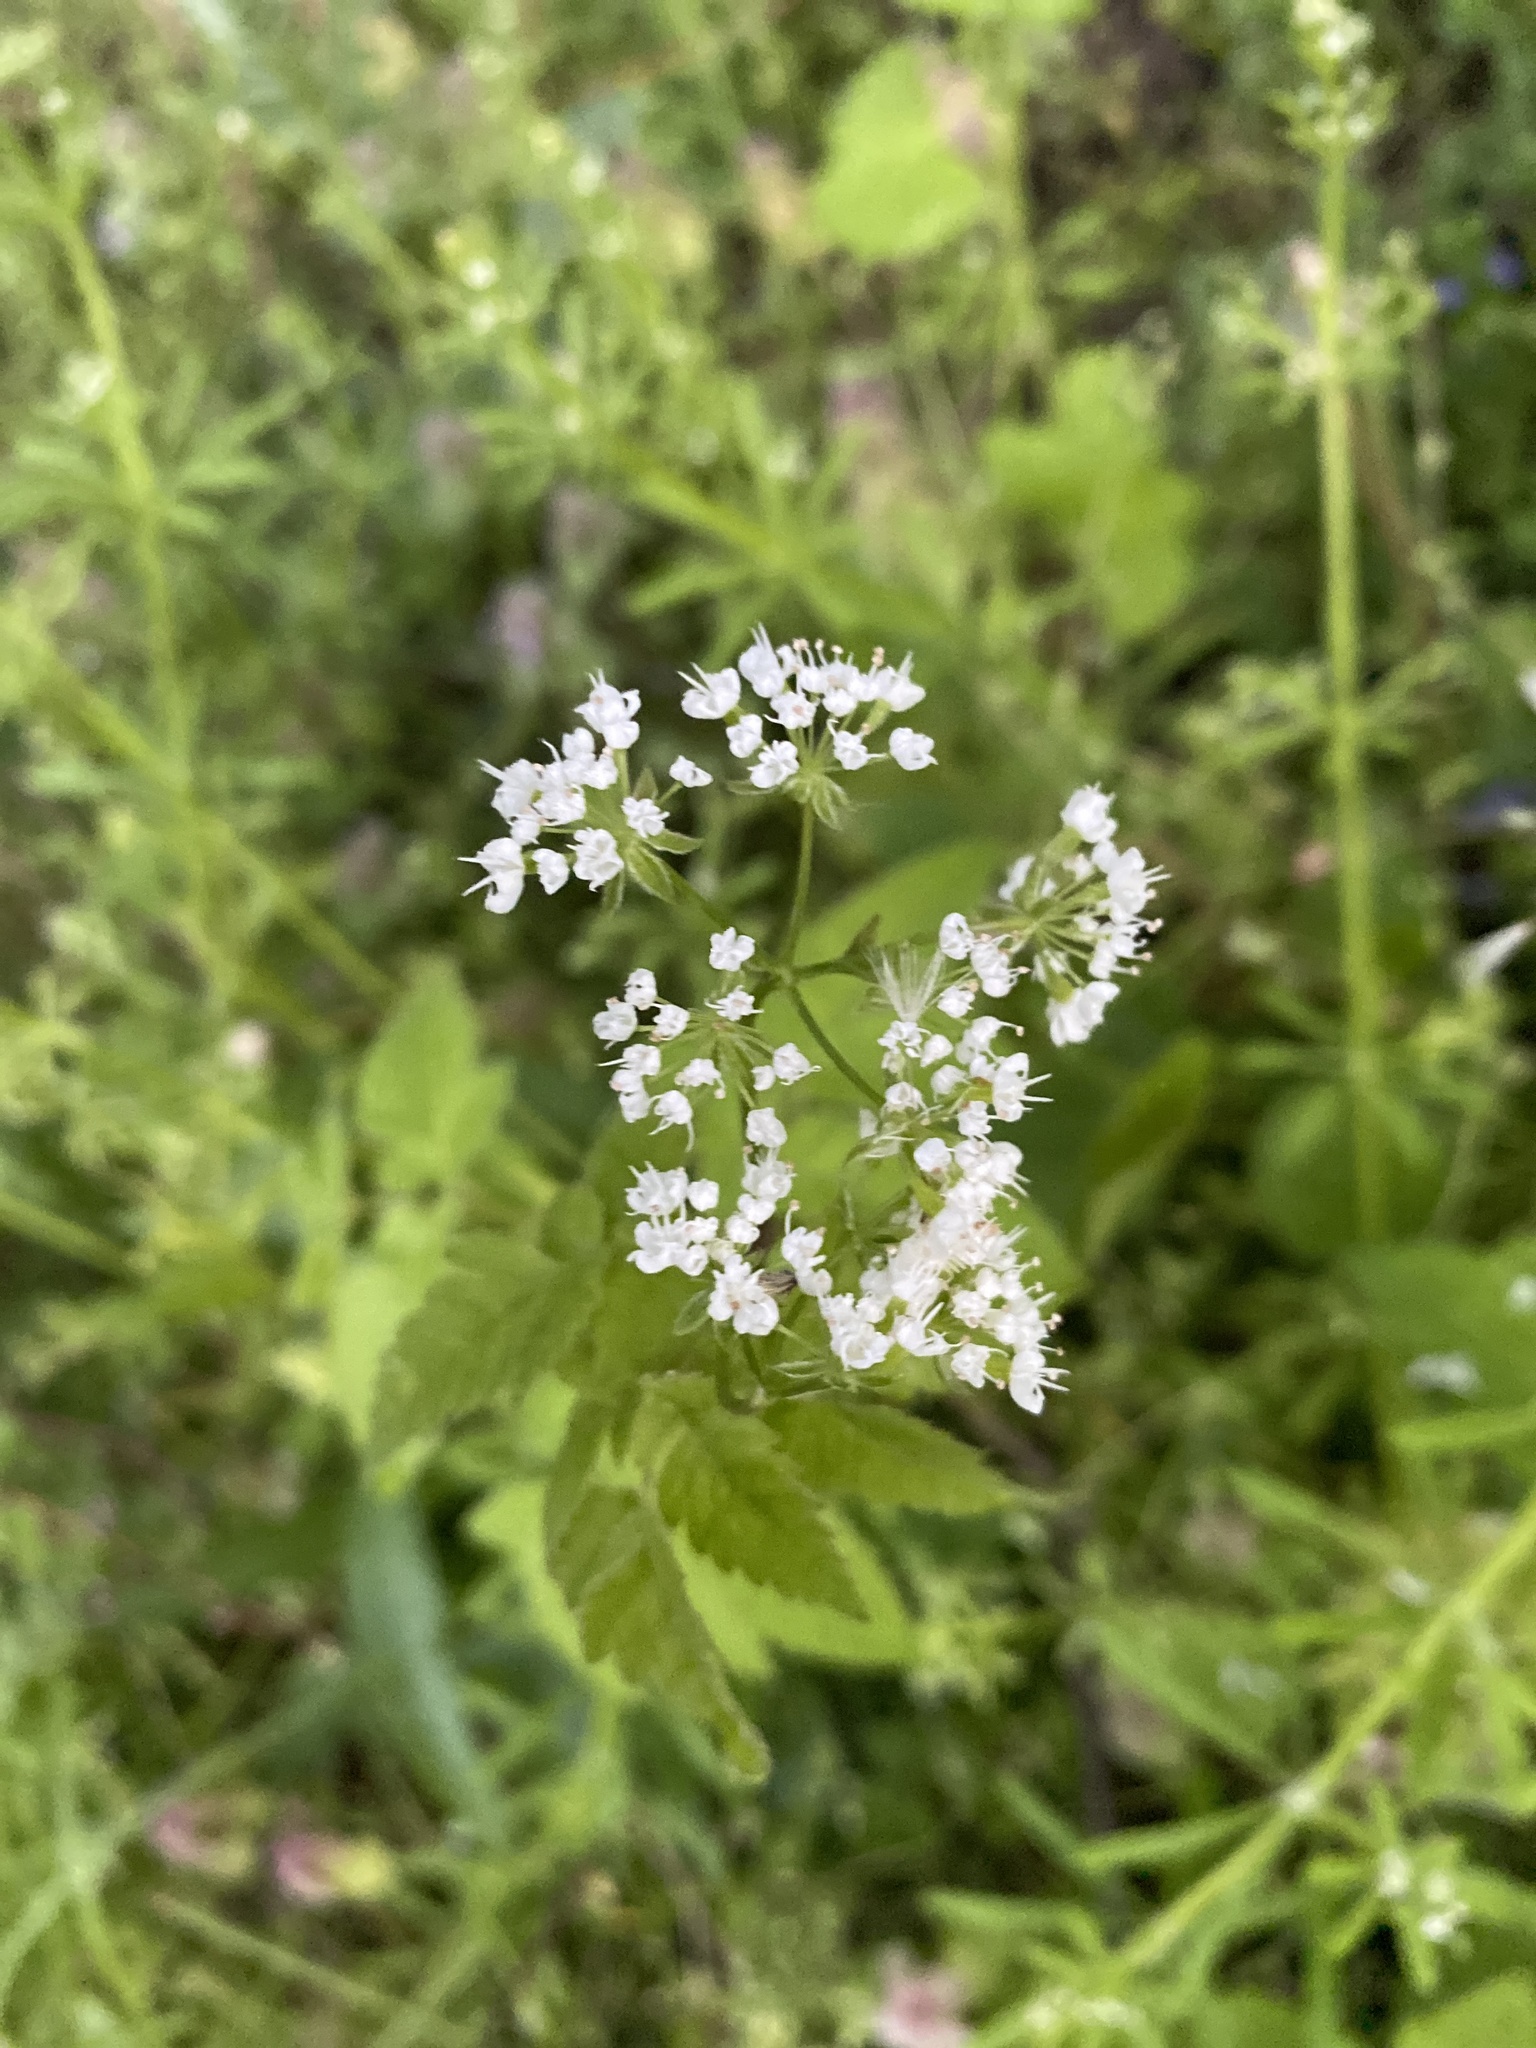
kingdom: Plantae
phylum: Tracheophyta
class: Magnoliopsida
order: Apiales
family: Apiaceae
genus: Osmorhiza
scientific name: Osmorhiza longistylis
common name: Smooth sweet cicely
